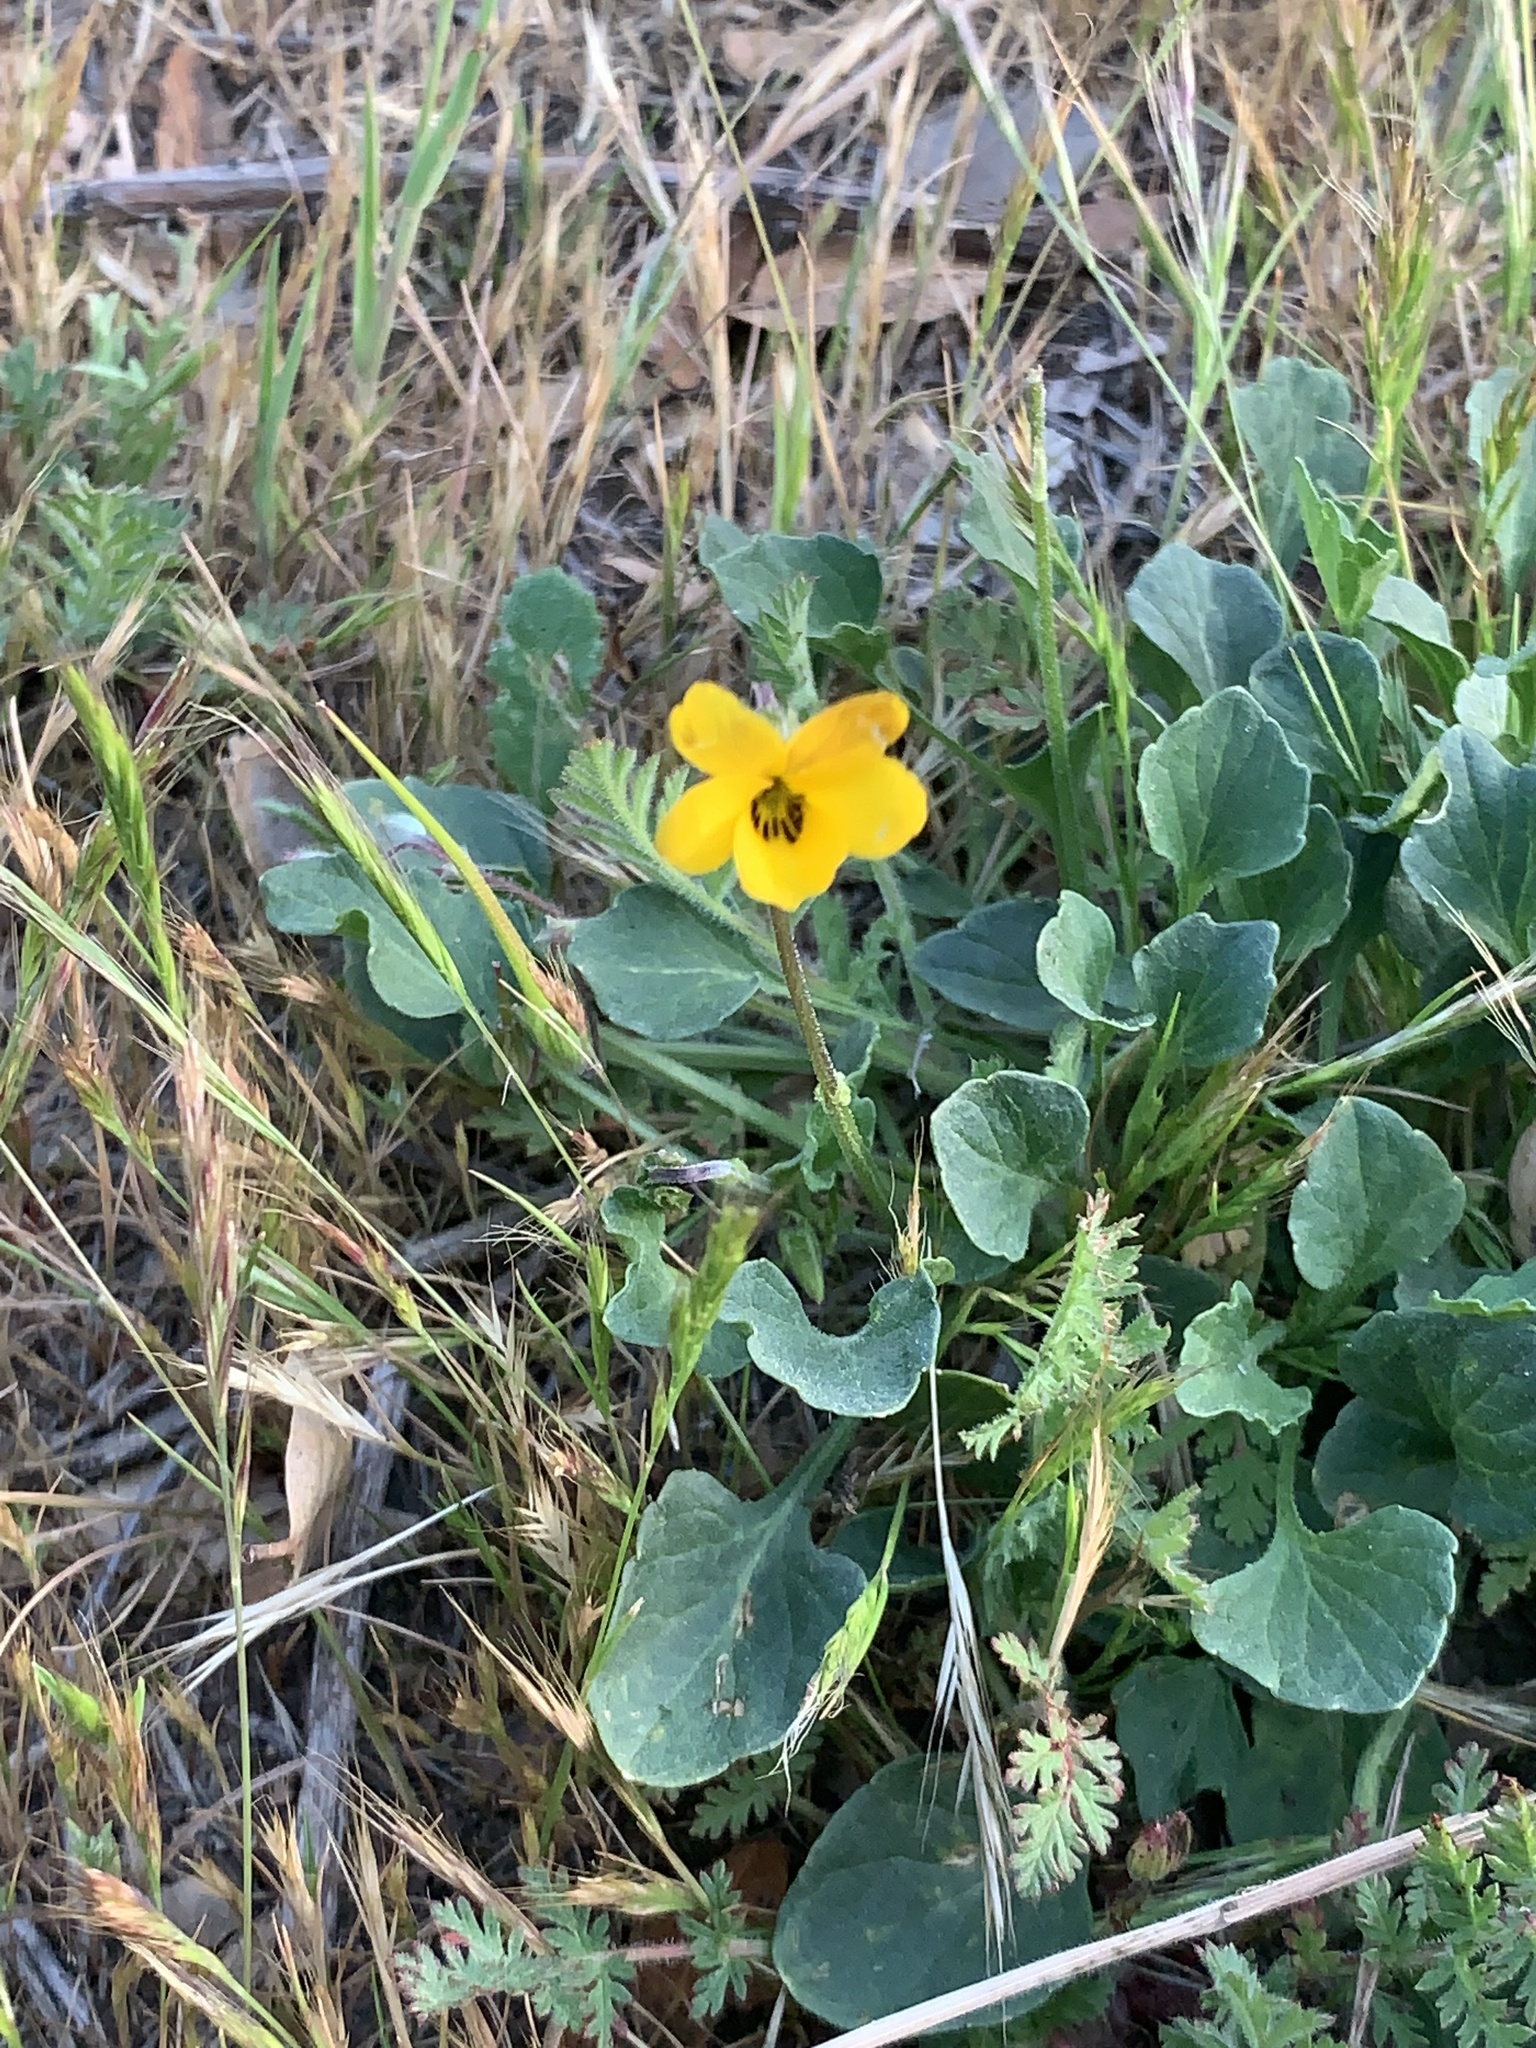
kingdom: Plantae
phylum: Tracheophyta
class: Magnoliopsida
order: Malpighiales
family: Violaceae
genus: Viola
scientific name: Viola pedunculata
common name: California golden violet
